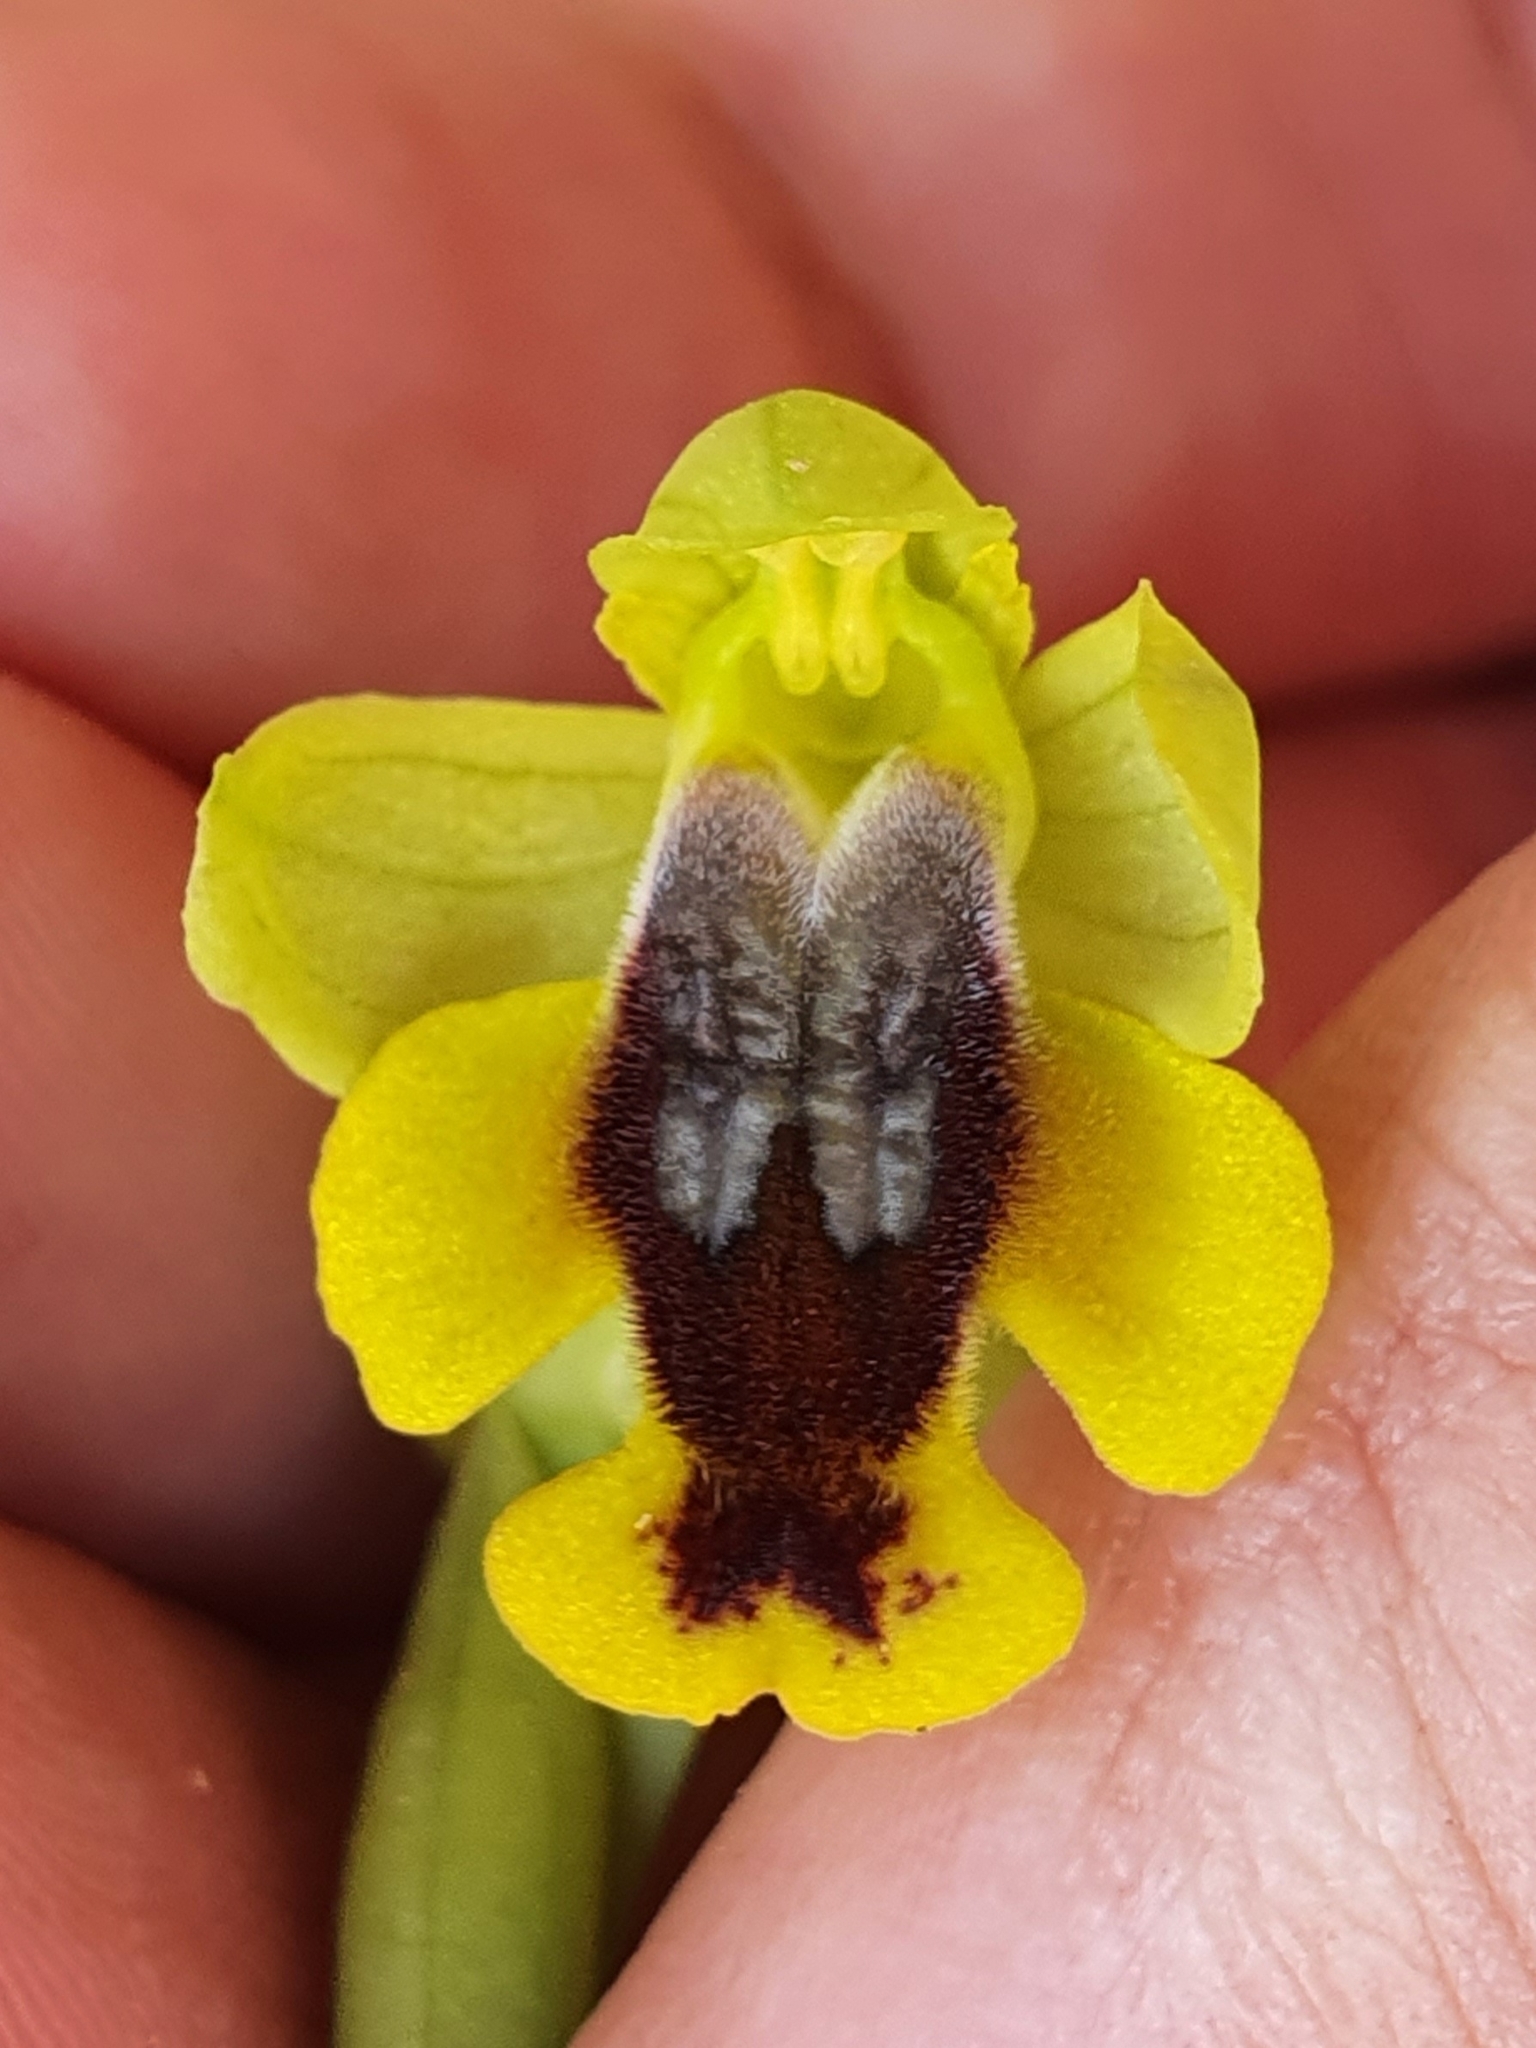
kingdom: Plantae
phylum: Tracheophyta
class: Liliopsida
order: Asparagales
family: Orchidaceae
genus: Ophrys
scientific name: Ophrys lutea
